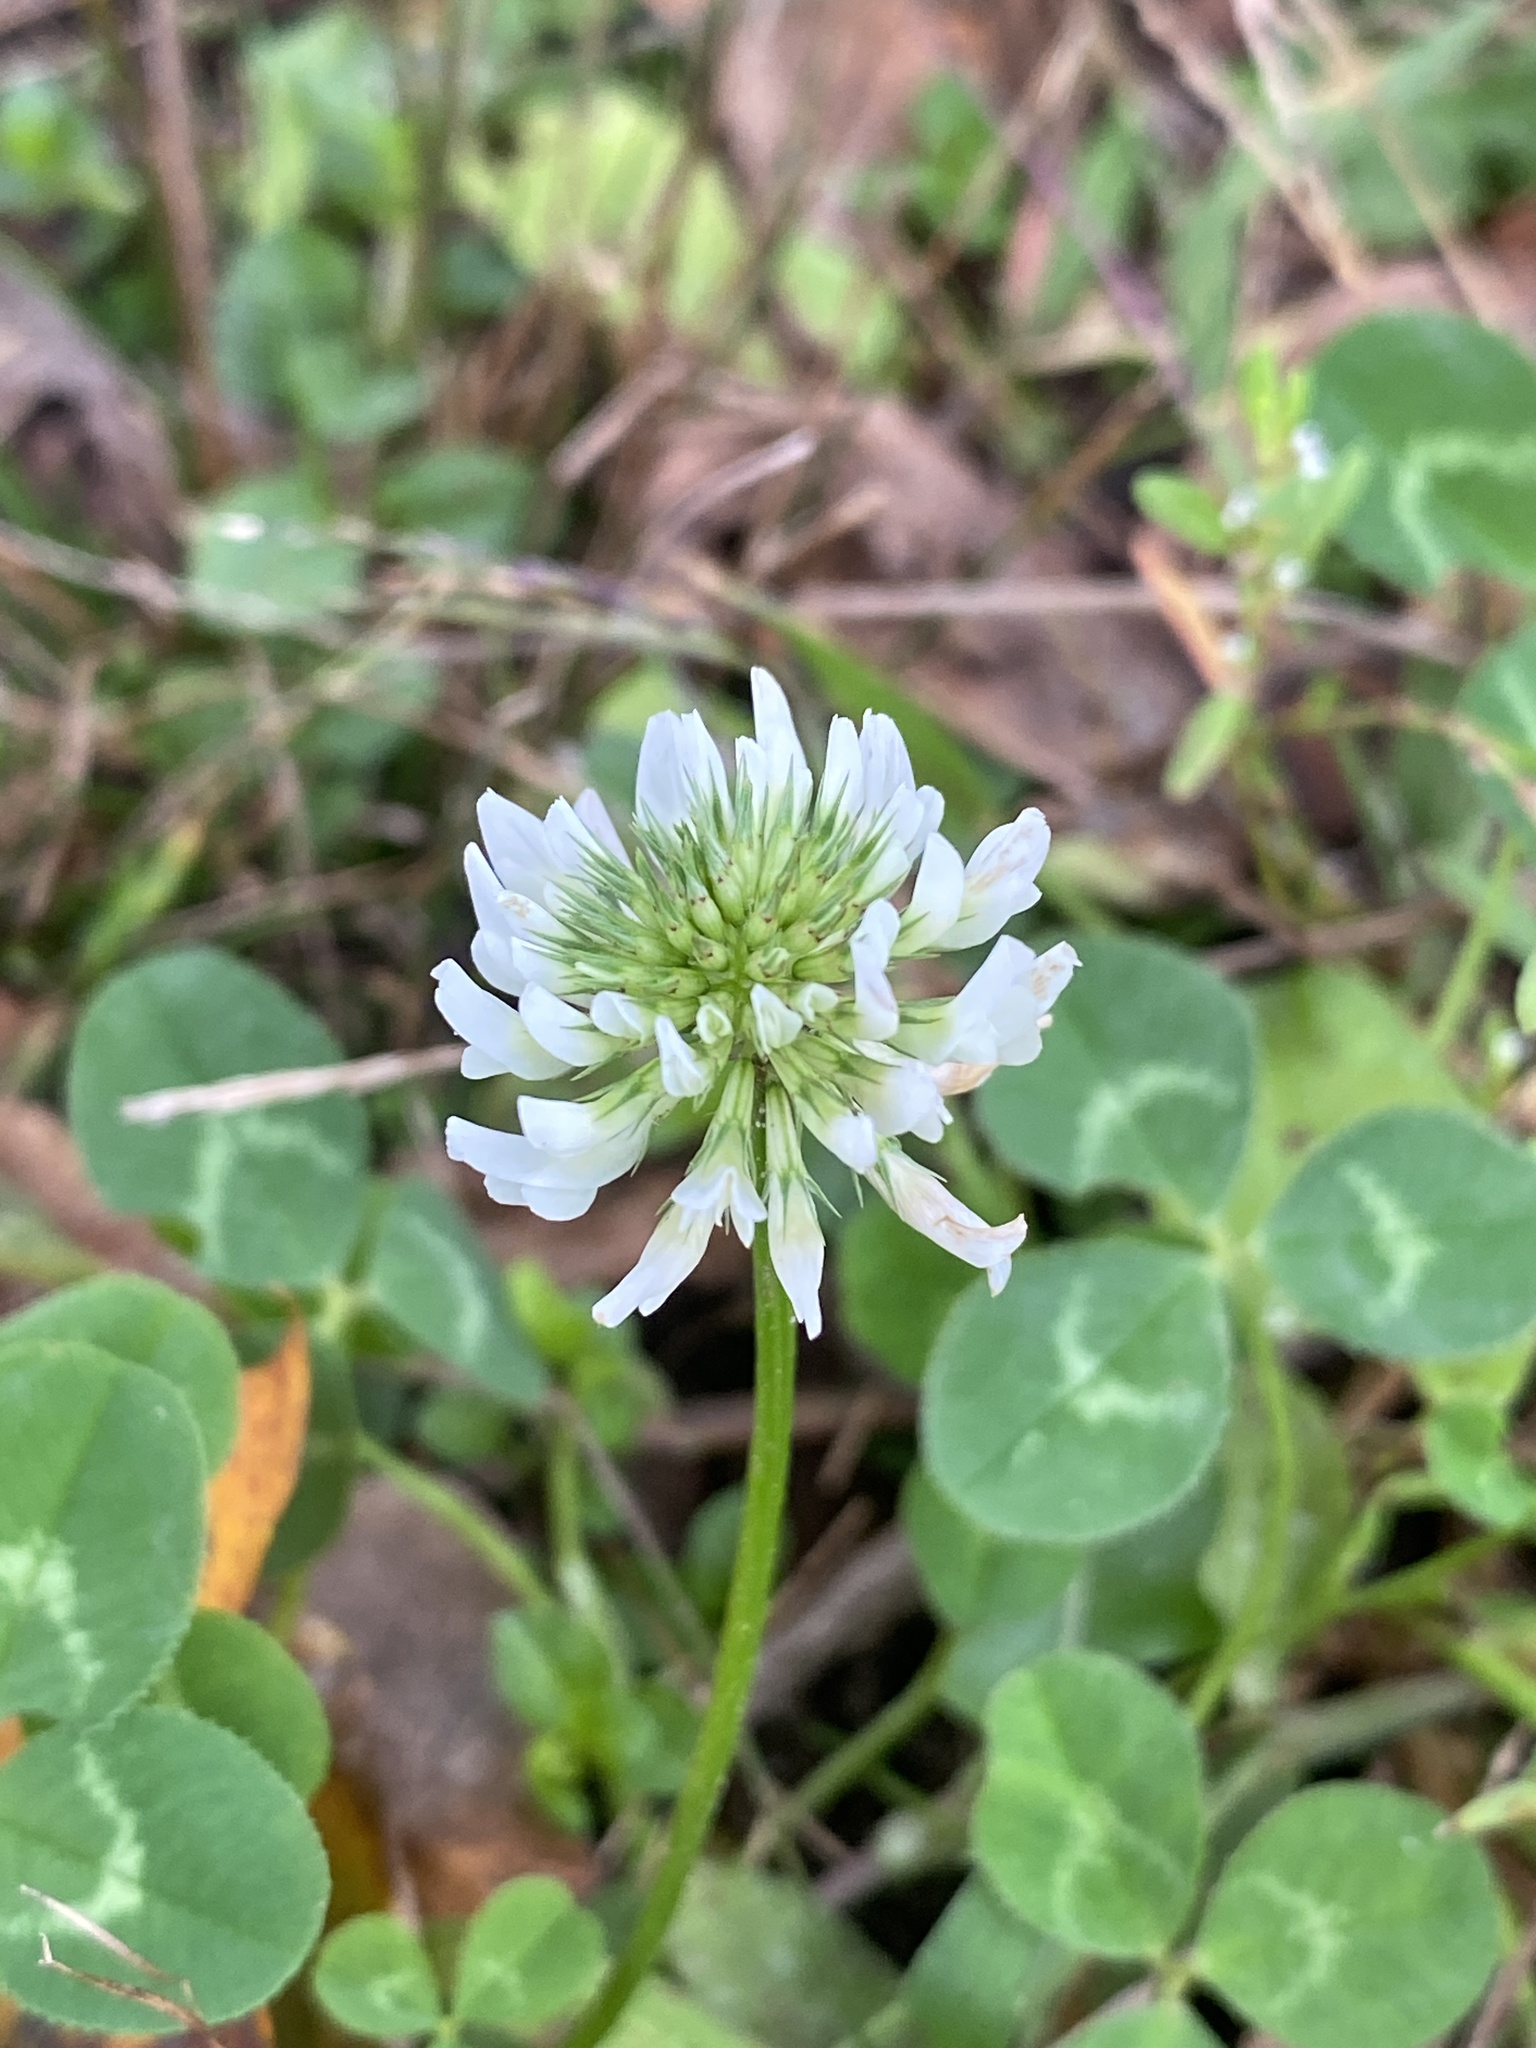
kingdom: Plantae
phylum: Tracheophyta
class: Magnoliopsida
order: Fabales
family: Fabaceae
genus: Trifolium
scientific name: Trifolium repens
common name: White clover
